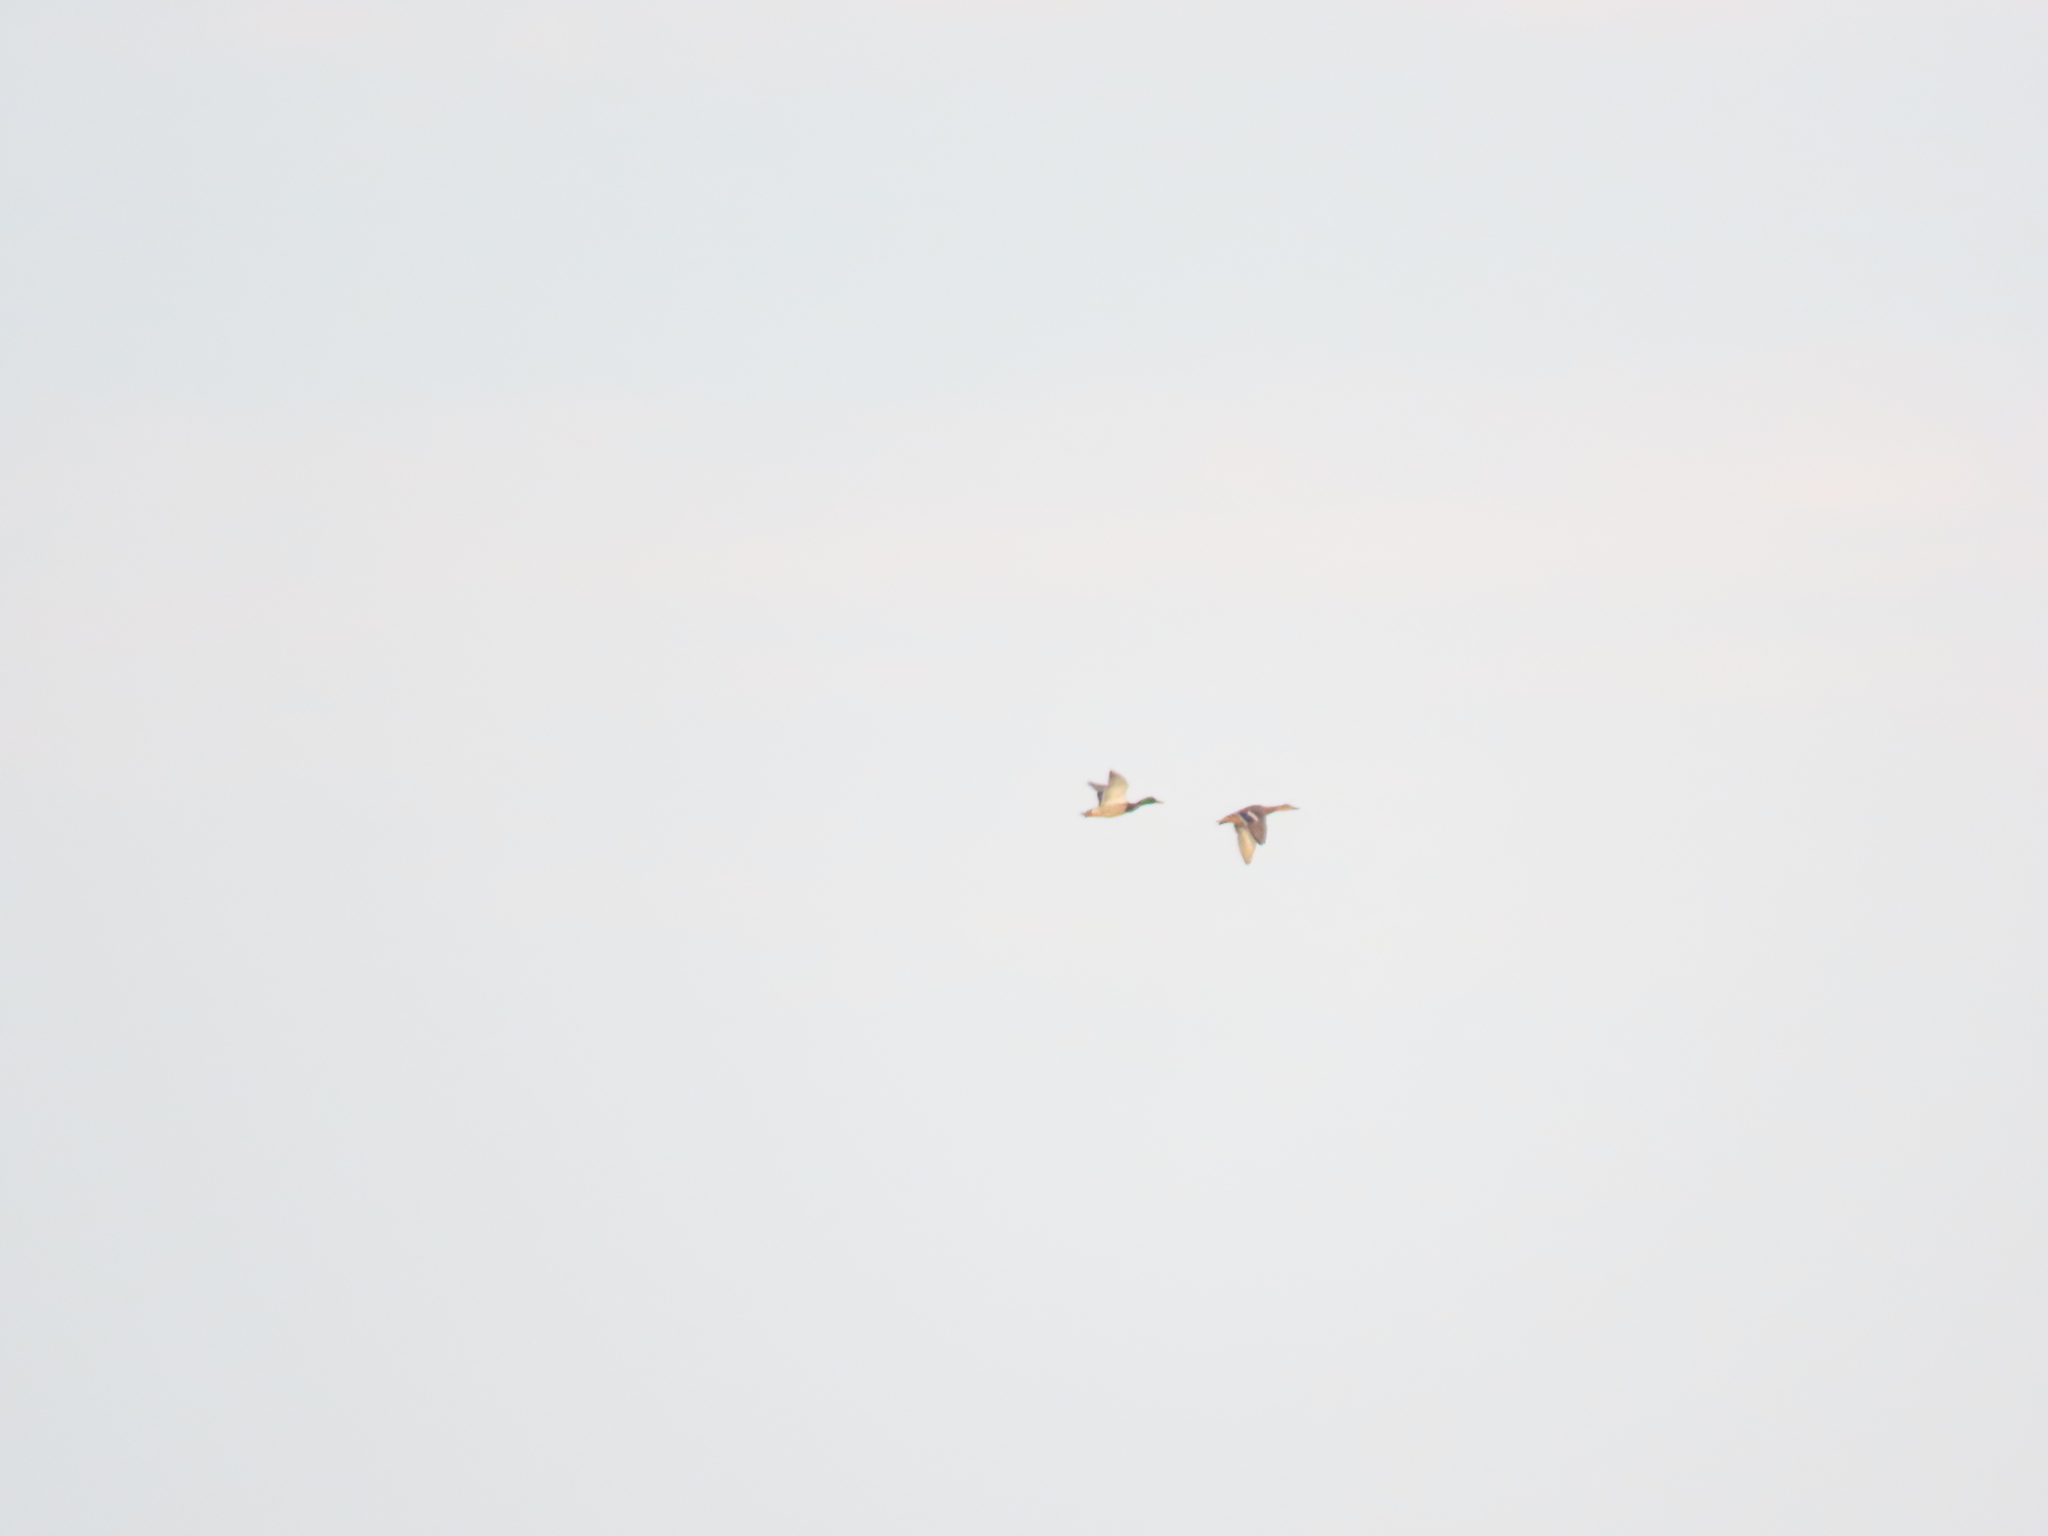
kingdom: Animalia
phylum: Chordata
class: Aves
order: Anseriformes
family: Anatidae
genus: Anas
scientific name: Anas platyrhynchos
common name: Mallard
